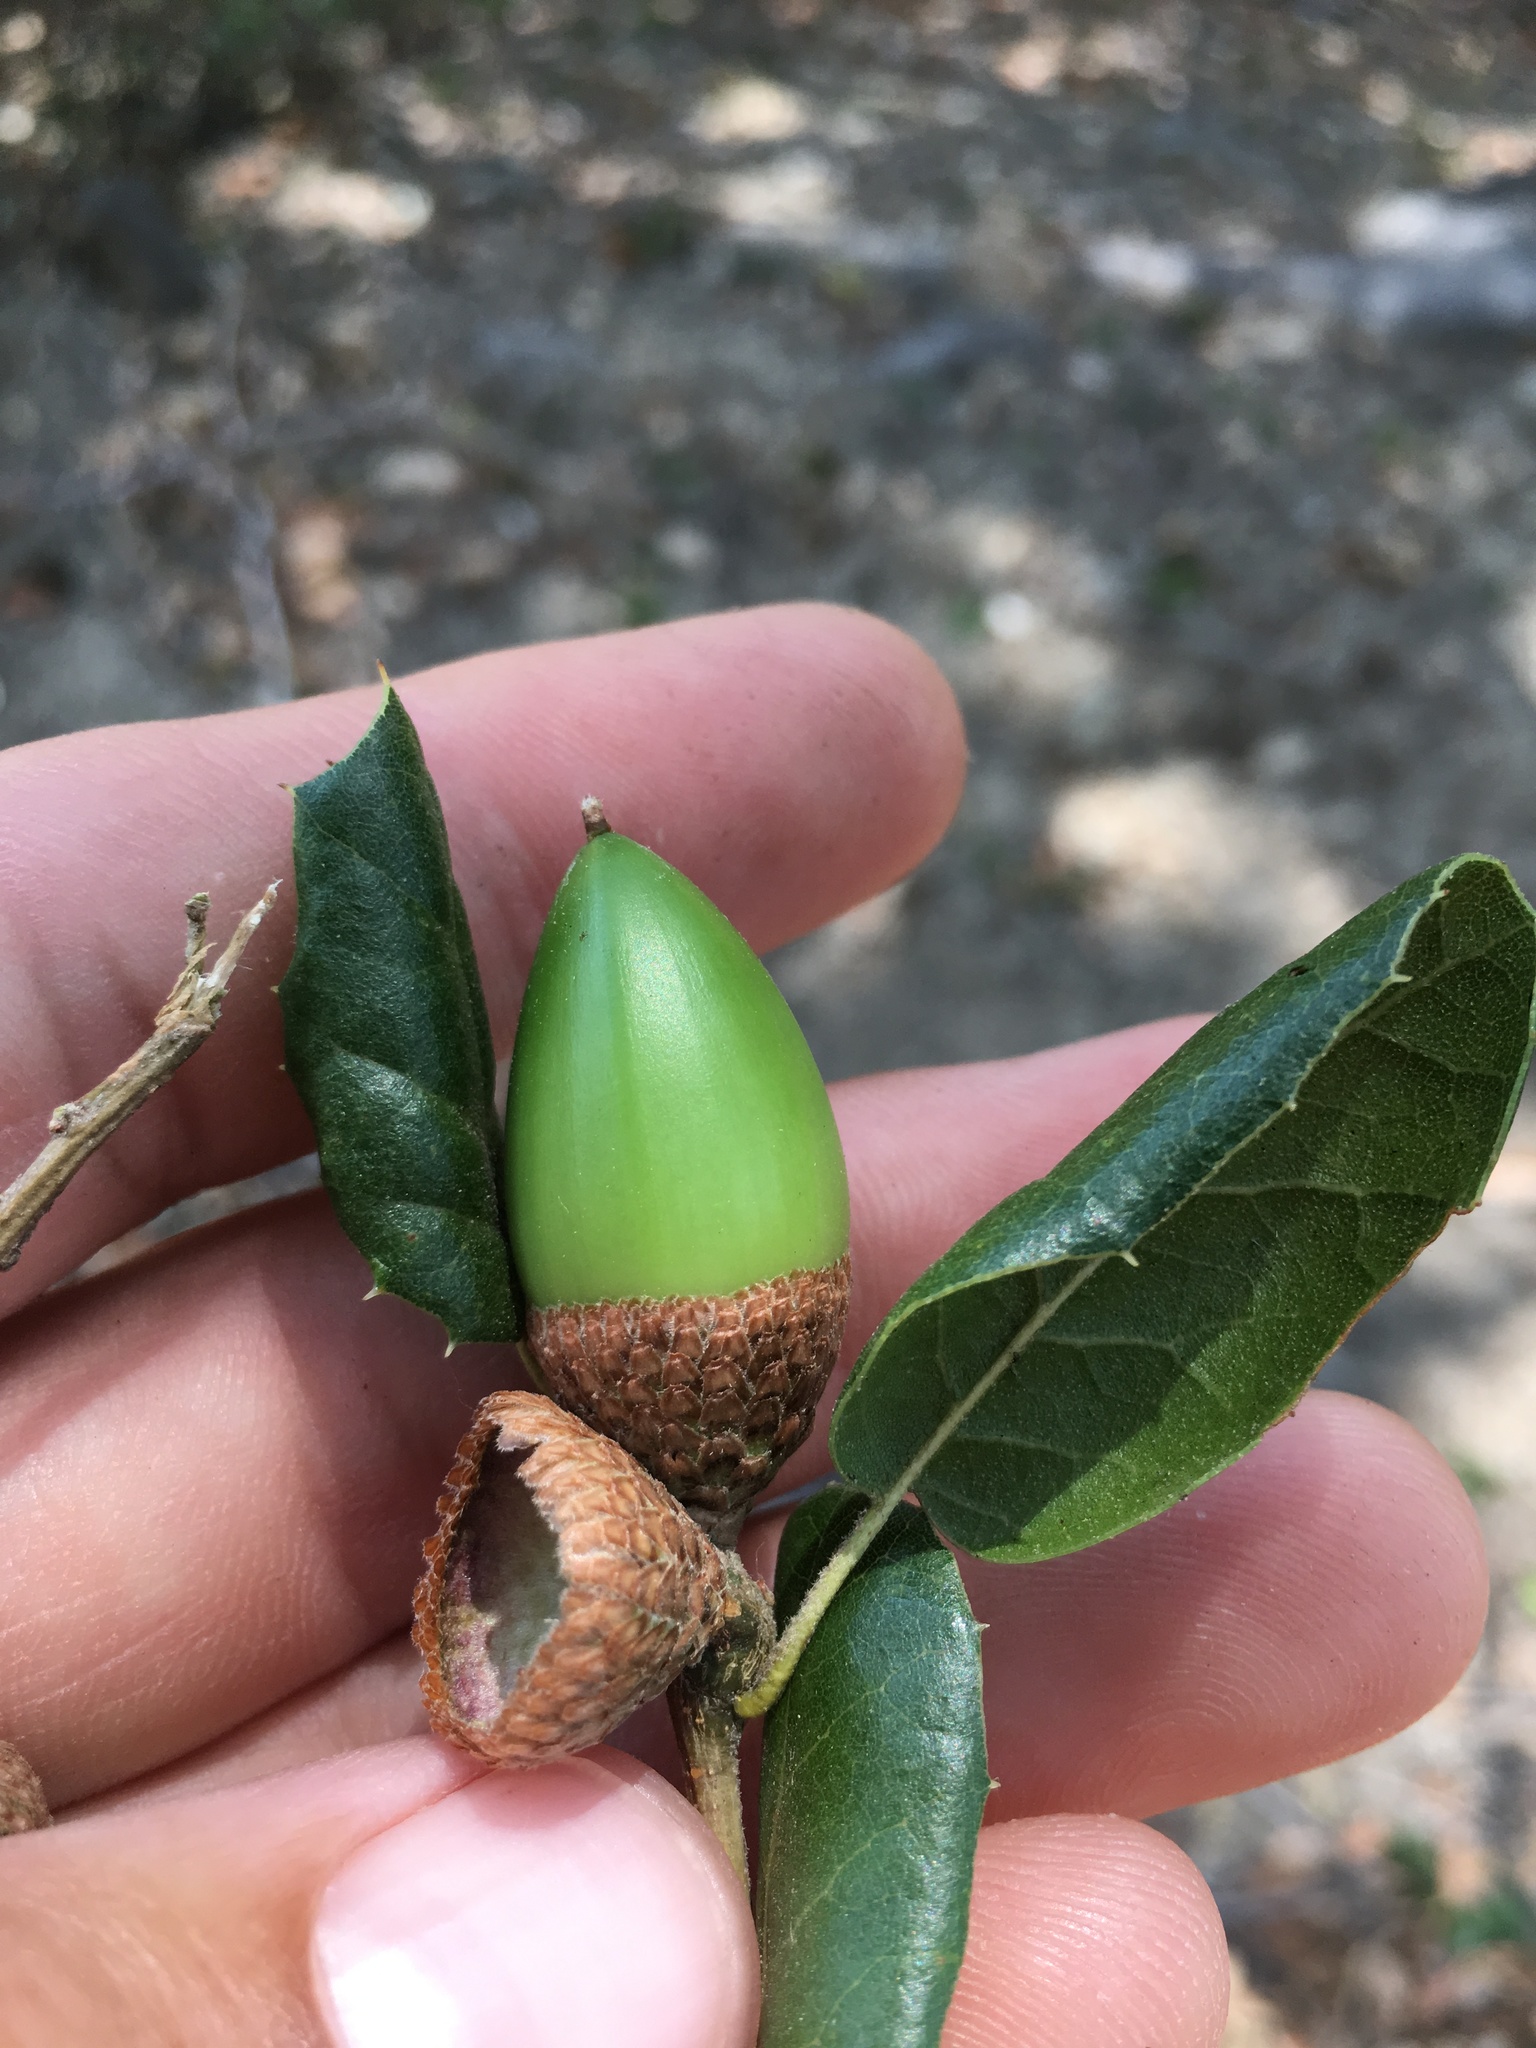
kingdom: Plantae
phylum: Tracheophyta
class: Magnoliopsida
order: Fagales
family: Fagaceae
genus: Quercus
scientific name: Quercus agrifolia
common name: California live oak
